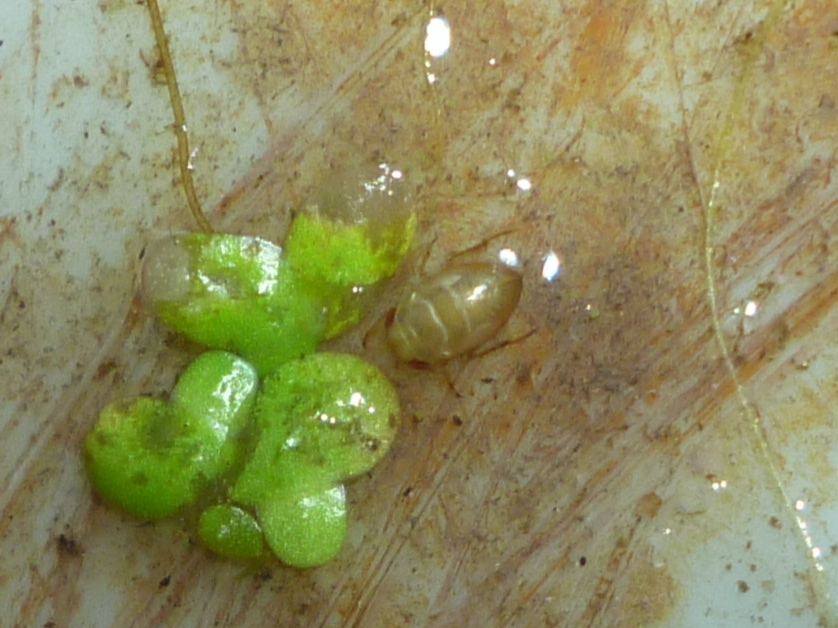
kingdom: Animalia
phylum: Arthropoda
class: Insecta
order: Hemiptera
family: Pleidae
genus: Neoplea
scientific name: Neoplea striola
